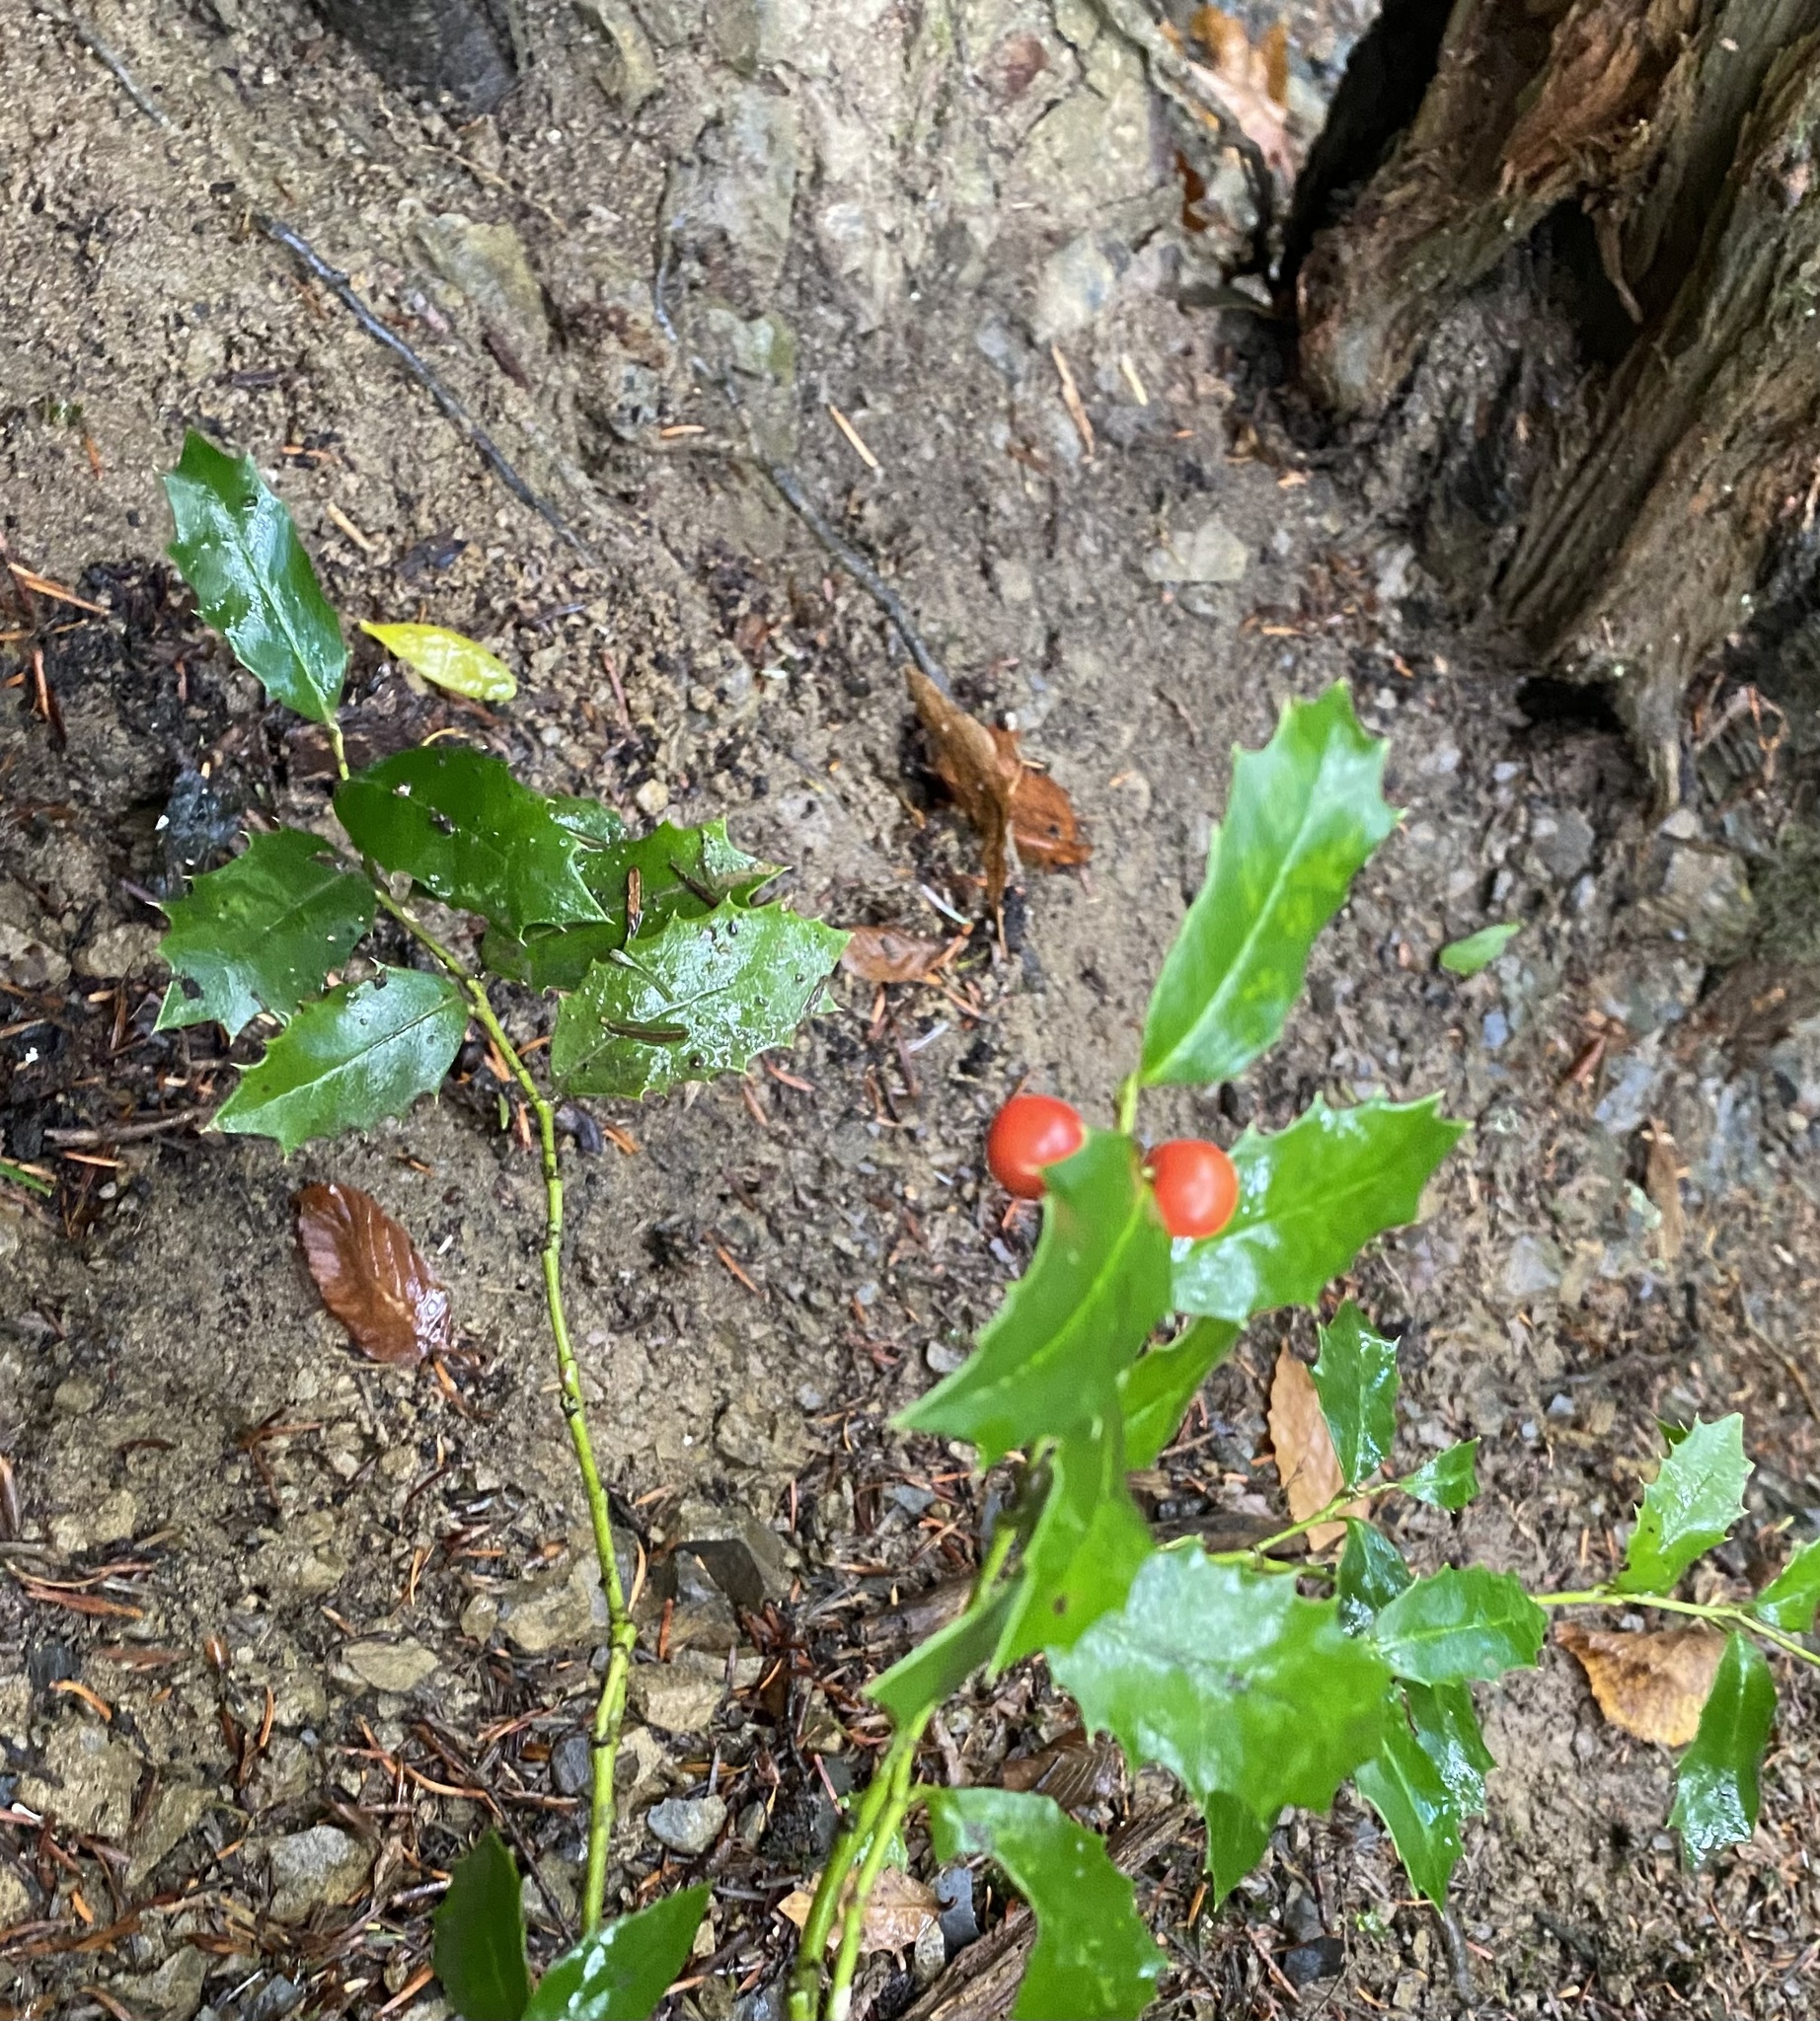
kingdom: Plantae
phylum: Tracheophyta
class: Magnoliopsida
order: Aquifoliales
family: Aquifoliaceae
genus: Ilex
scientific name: Ilex colchica
